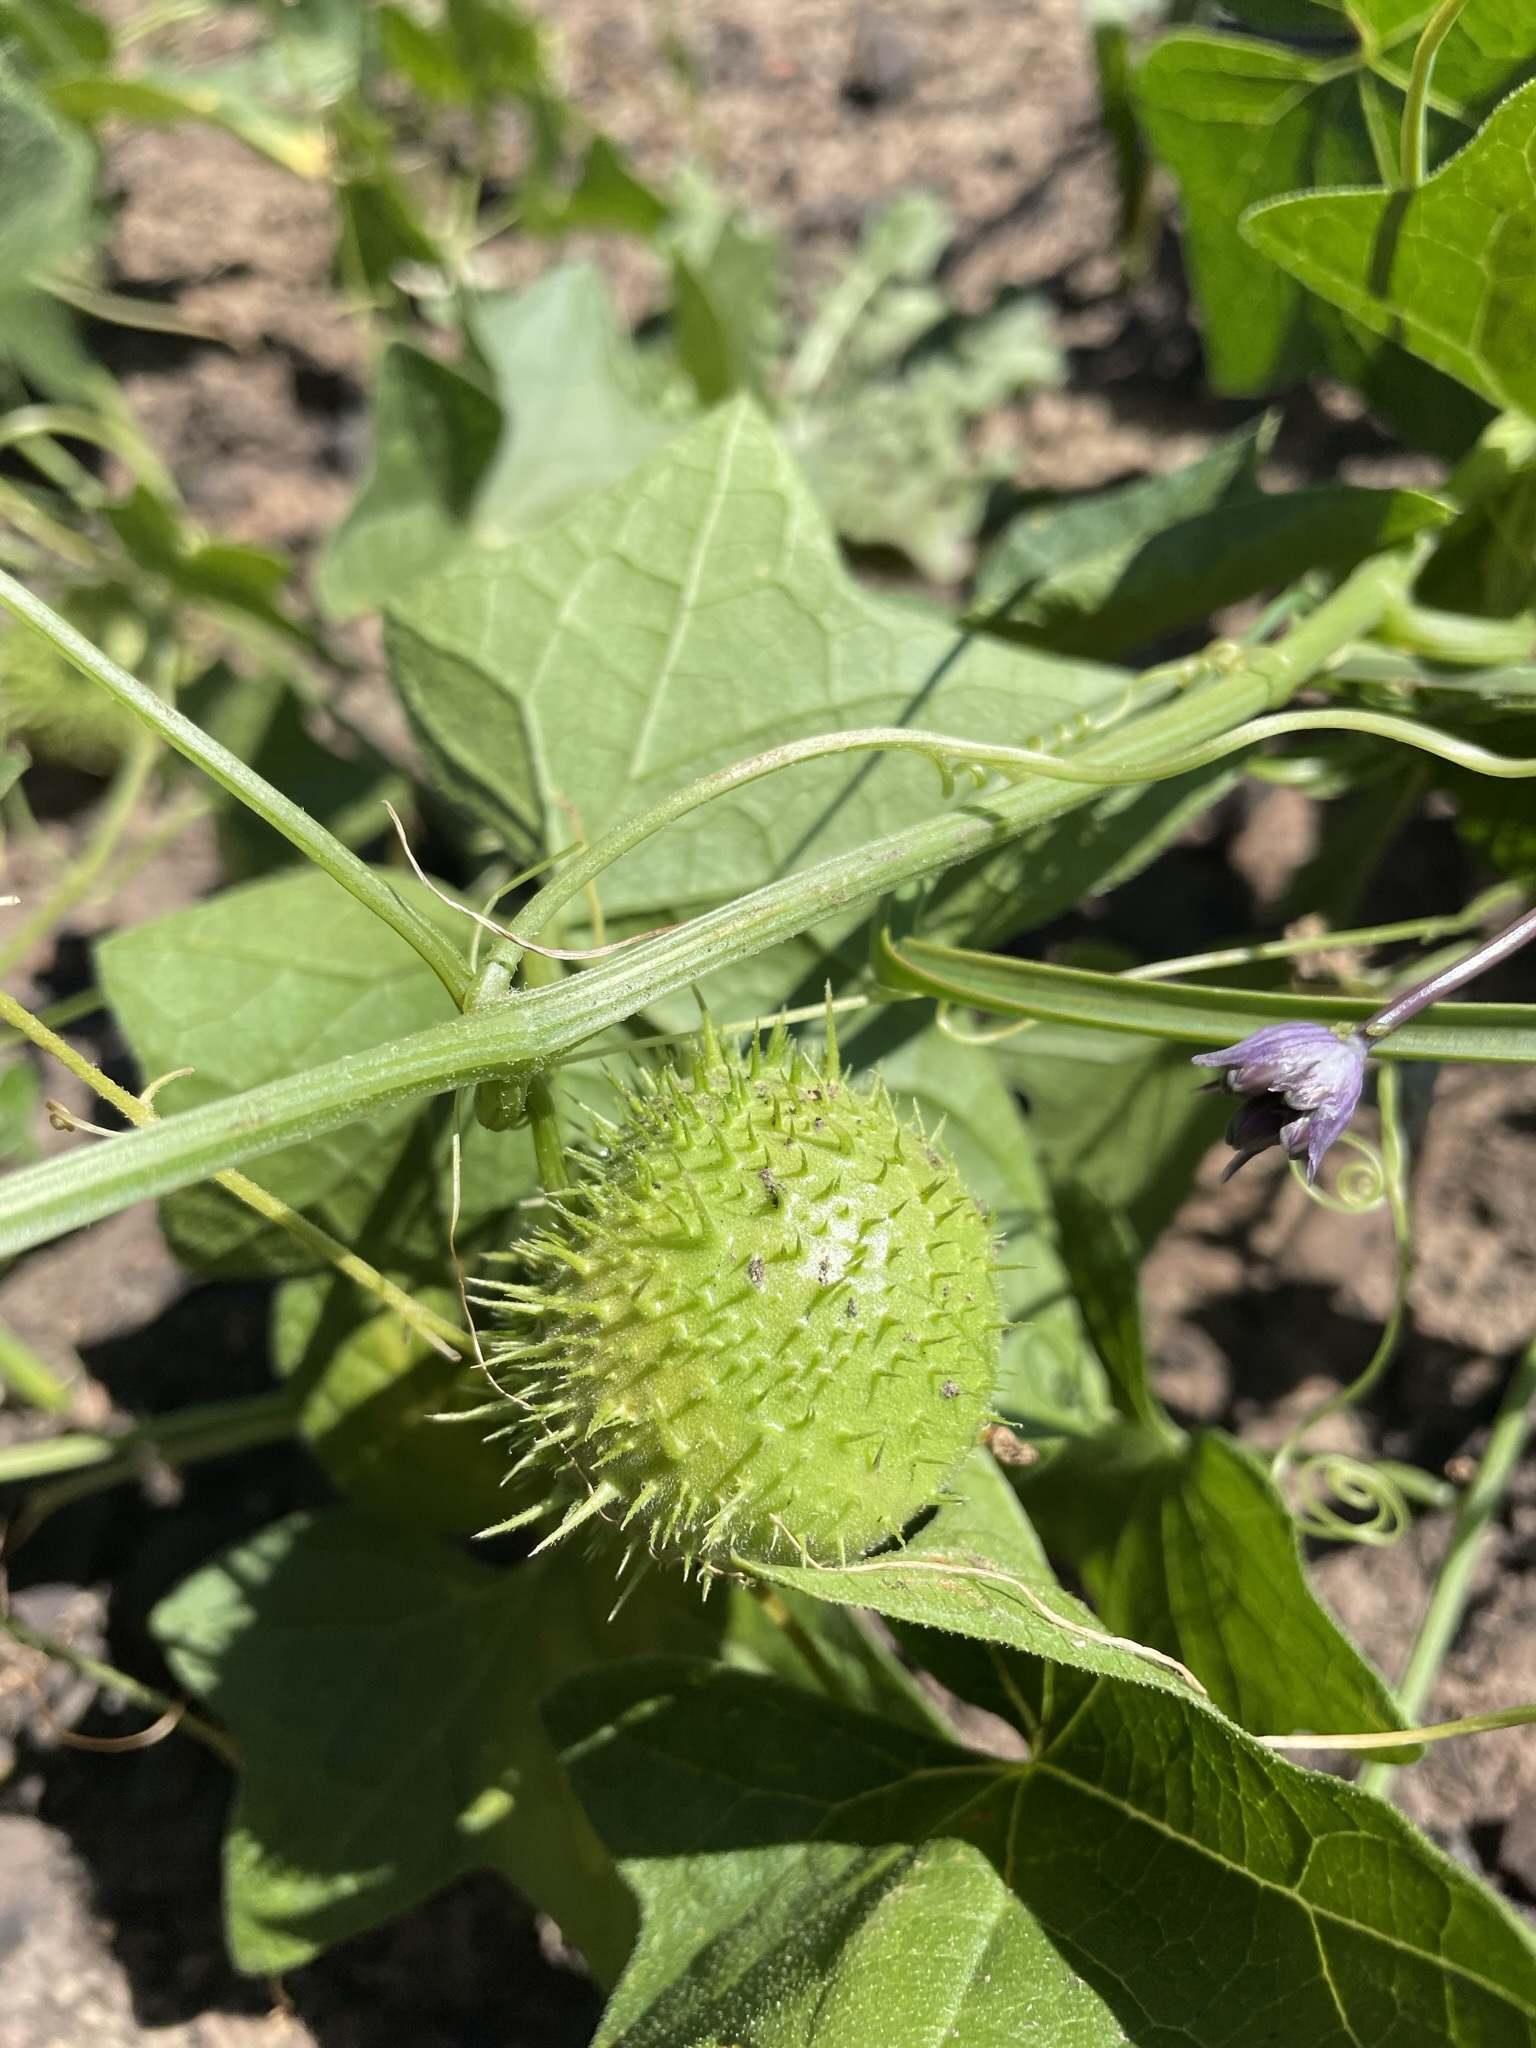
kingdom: Plantae
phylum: Tracheophyta
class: Magnoliopsida
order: Cucurbitales
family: Cucurbitaceae
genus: Marah
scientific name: Marah fabacea
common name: California manroot
